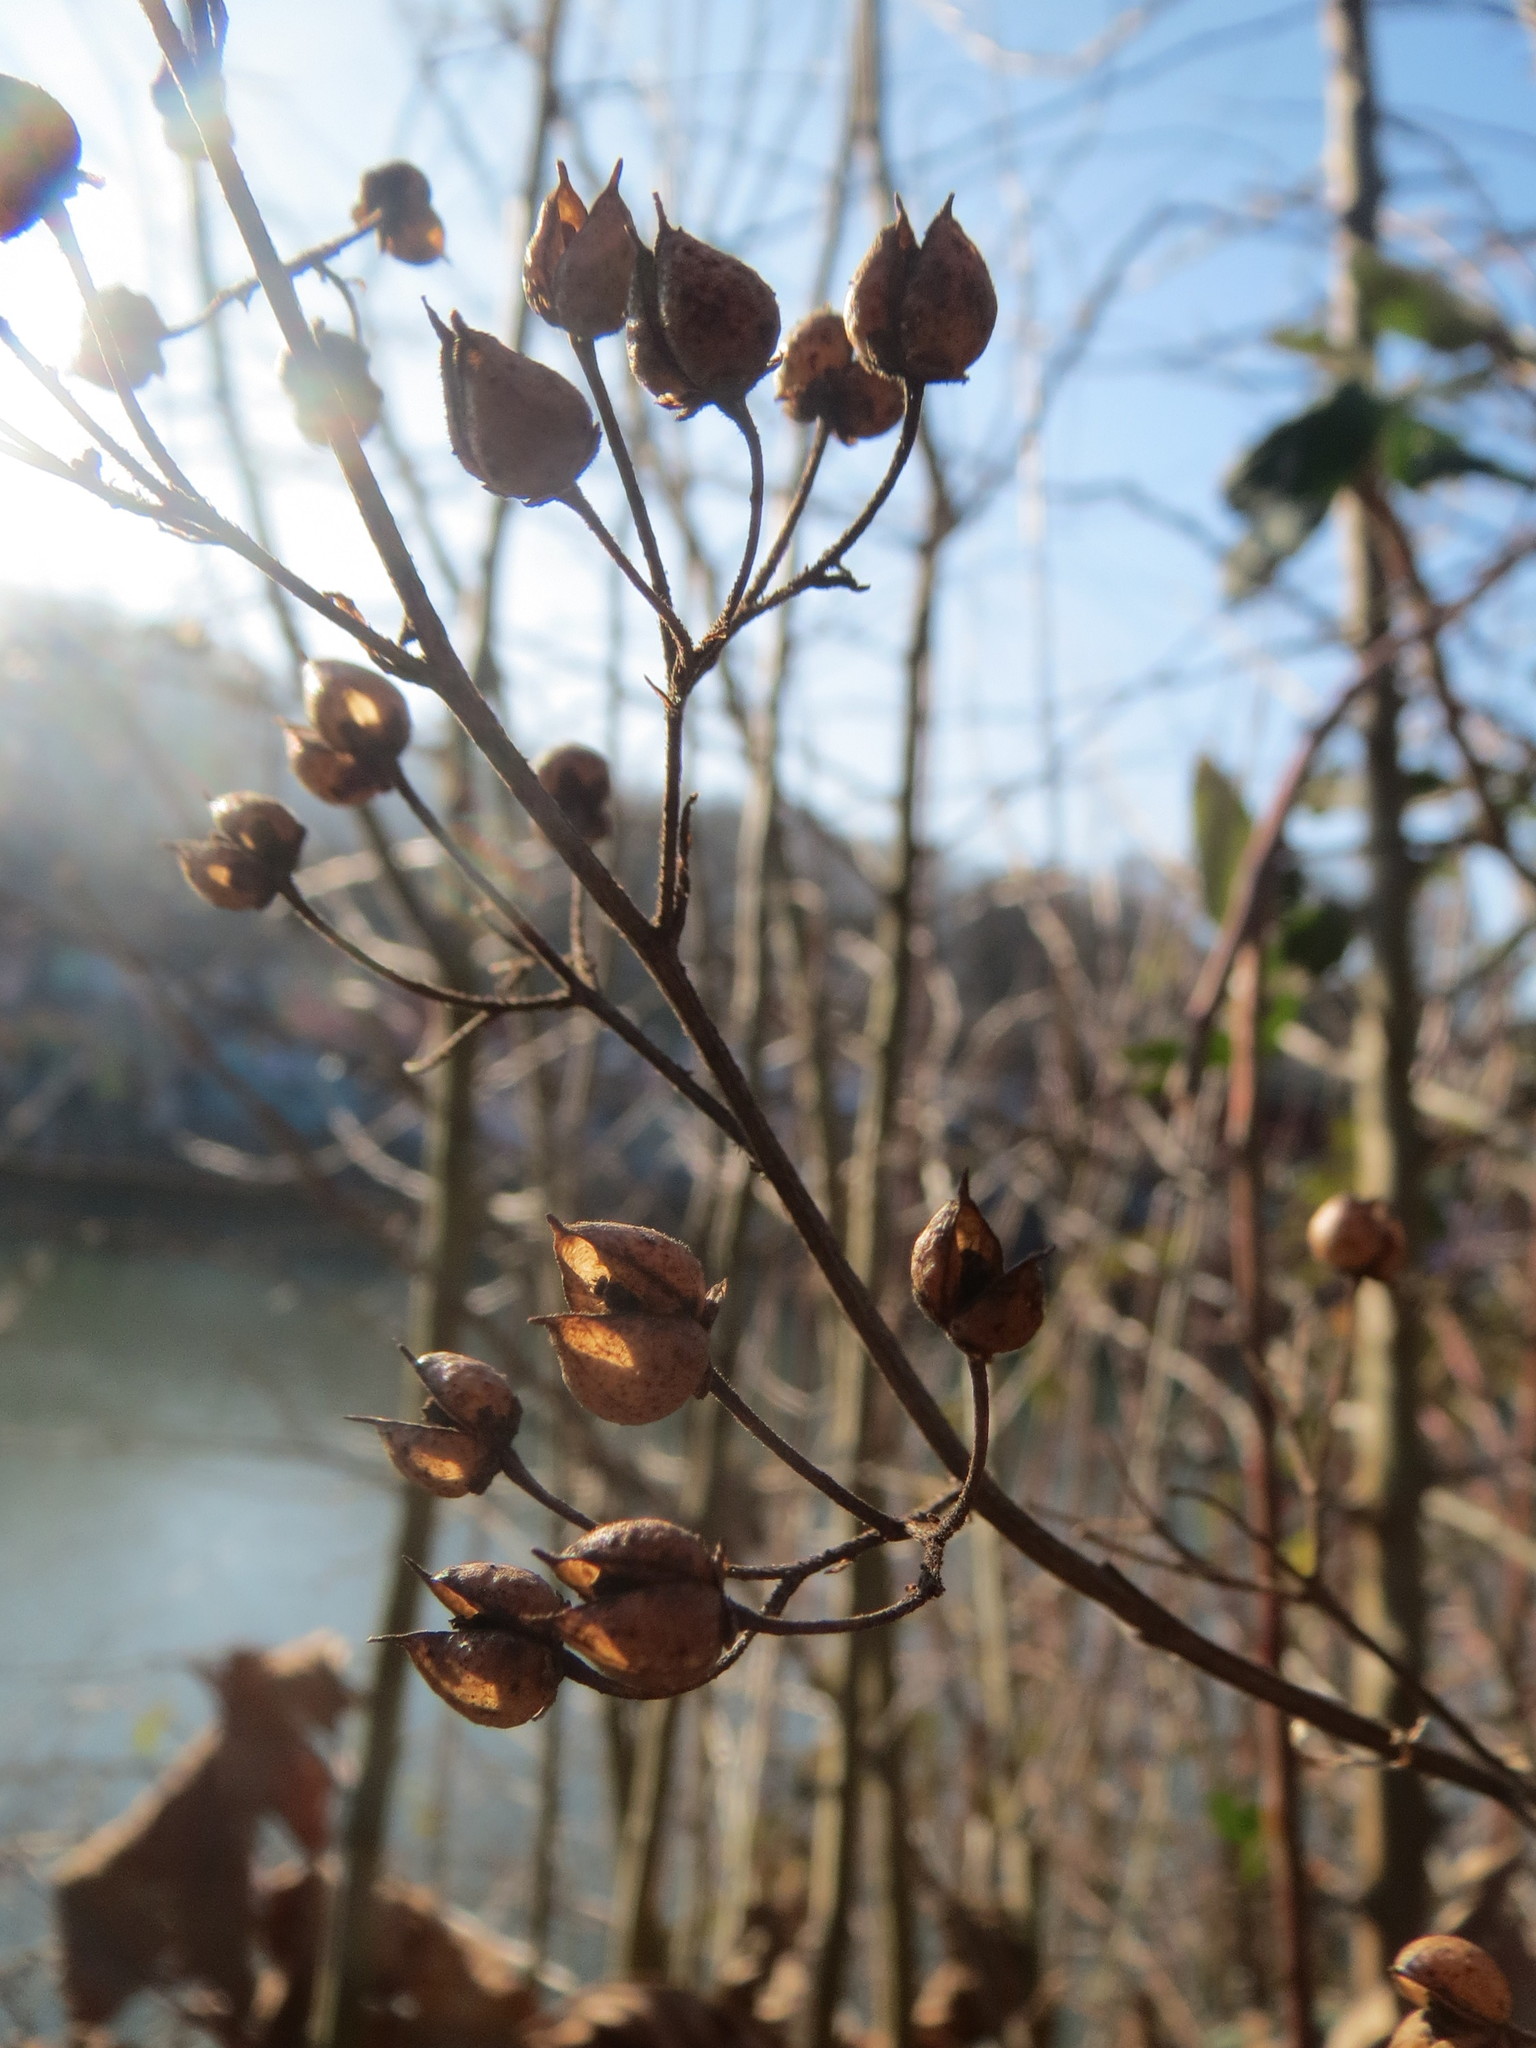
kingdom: Plantae
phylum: Tracheophyta
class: Magnoliopsida
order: Lamiales
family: Scrophulariaceae
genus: Scrophularia
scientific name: Scrophularia nodosa
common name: Common figwort
